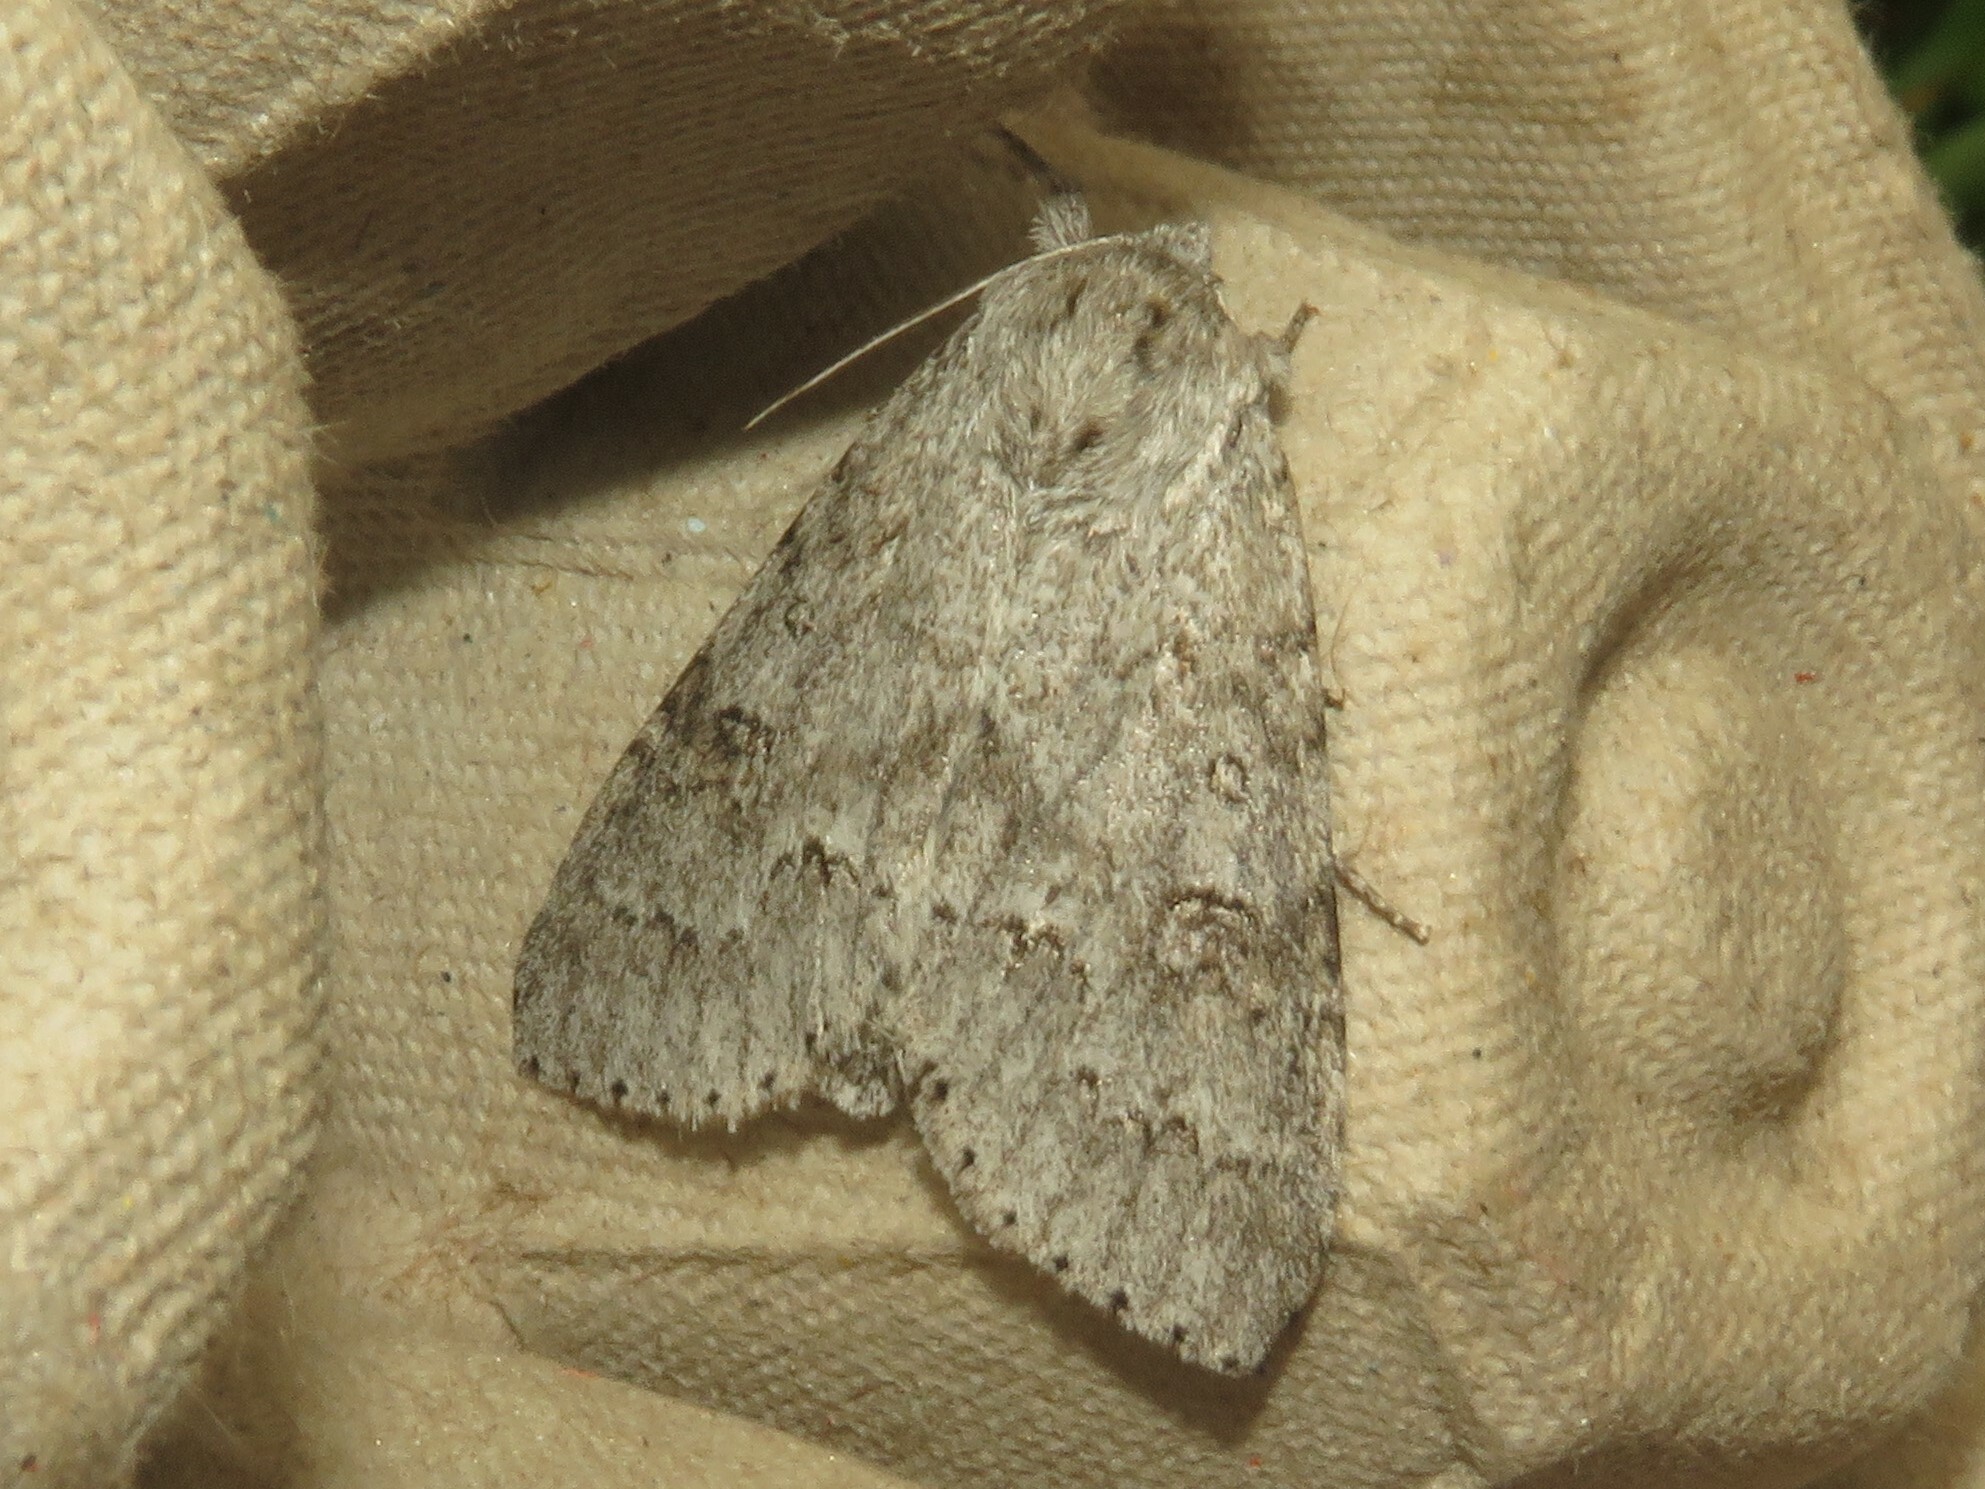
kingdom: Animalia
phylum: Arthropoda
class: Insecta
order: Lepidoptera
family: Noctuidae
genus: Acronicta
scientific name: Acronicta insita
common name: Large gray dagger
